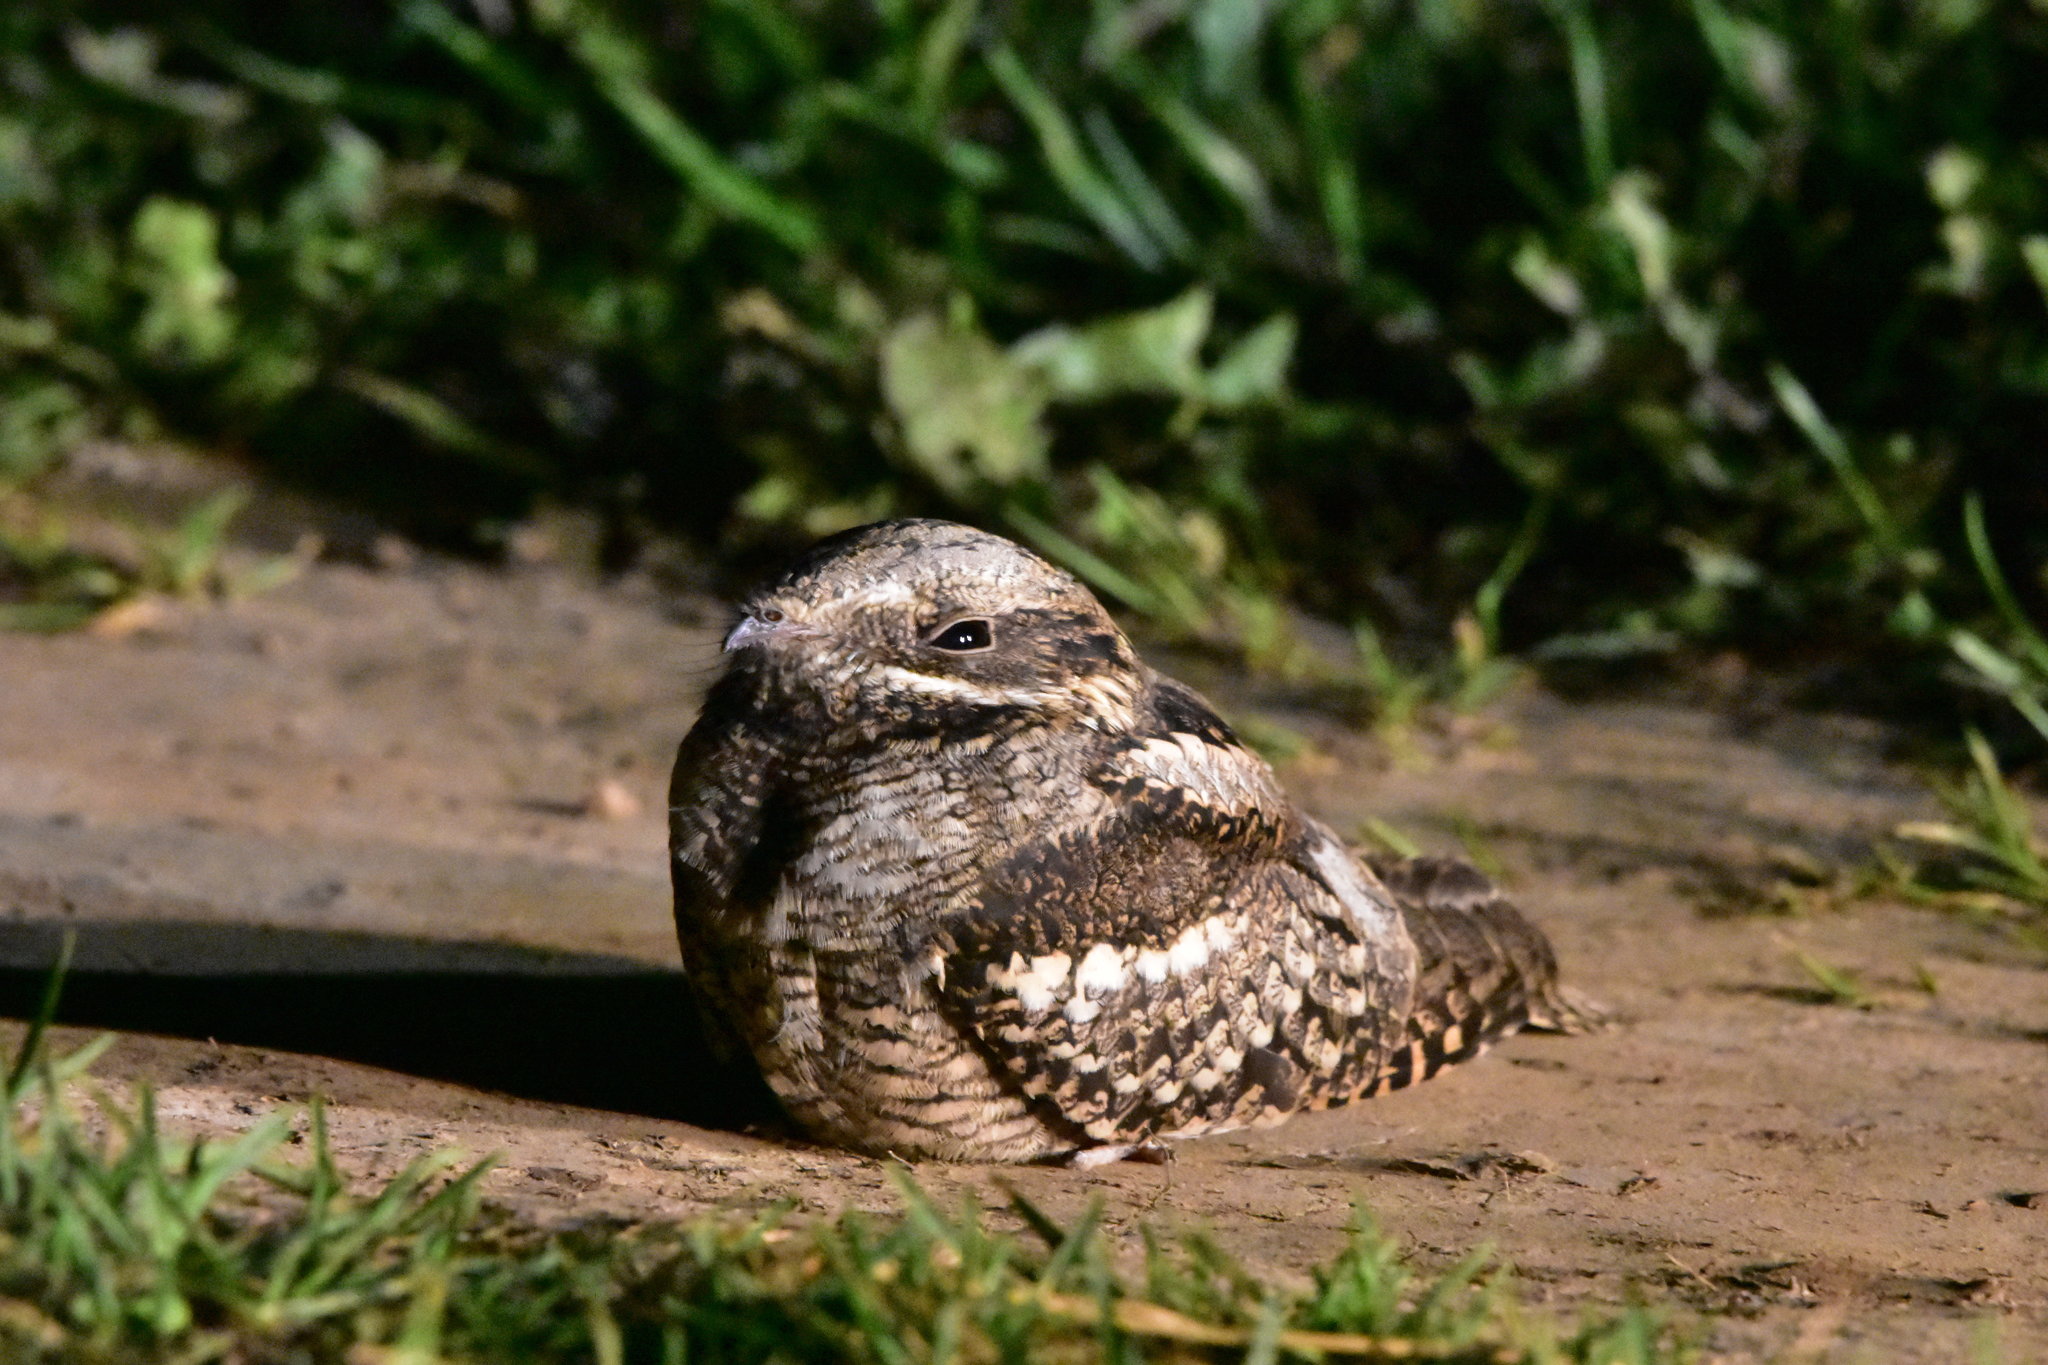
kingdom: Animalia
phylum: Chordata
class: Aves
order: Caprimulgiformes
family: Caprimulgidae
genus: Caprimulgus
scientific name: Caprimulgus europaeus
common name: European nightjar
